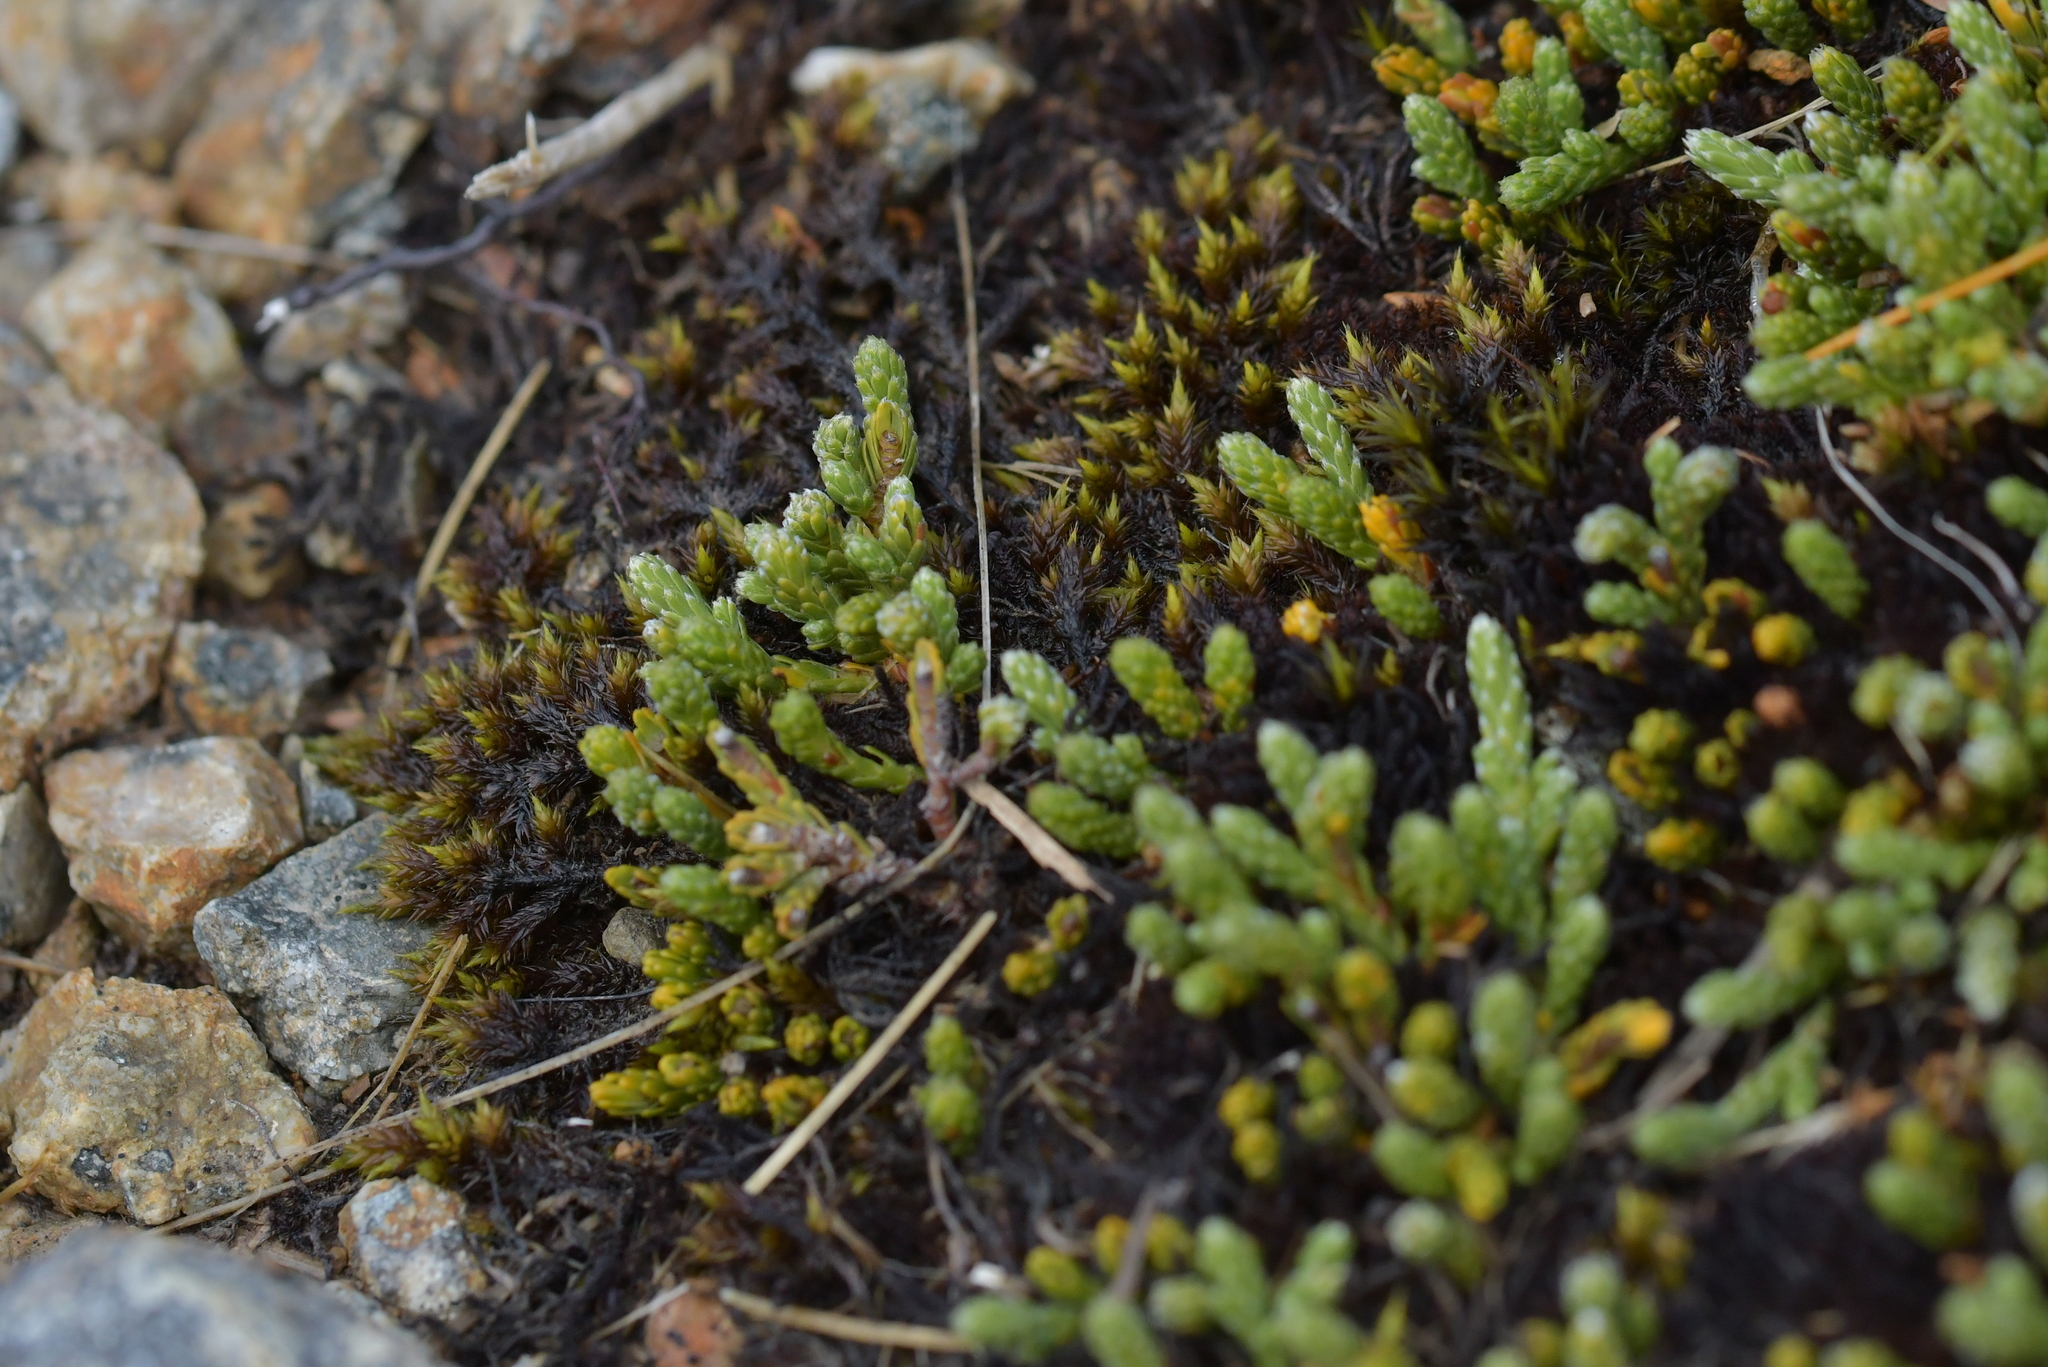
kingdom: Plantae
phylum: Tracheophyta
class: Magnoliopsida
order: Malvales
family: Thymelaeaceae
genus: Kelleria
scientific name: Kelleria dieffenbachii
